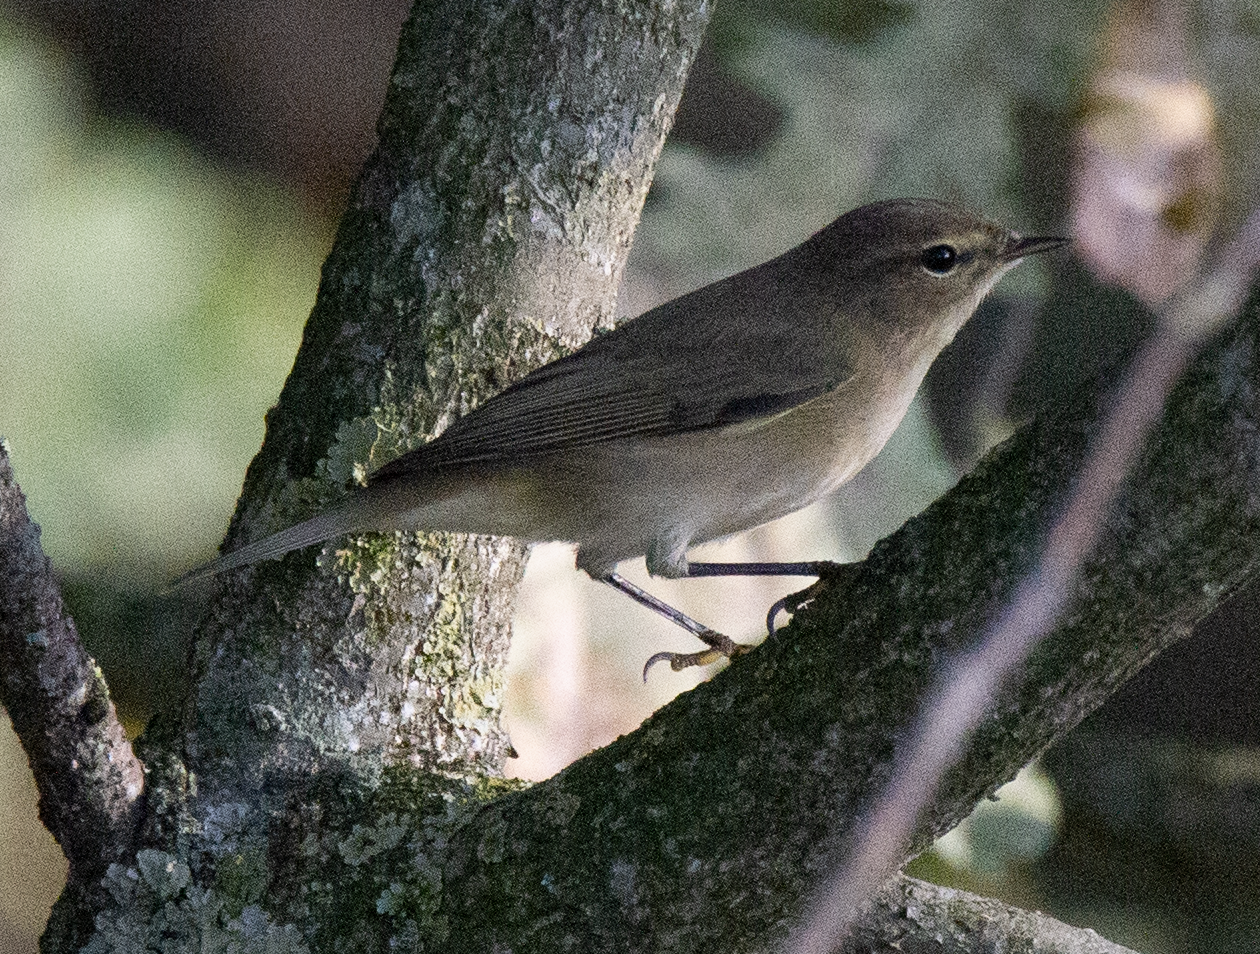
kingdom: Animalia
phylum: Chordata
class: Aves
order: Passeriformes
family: Phylloscopidae
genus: Phylloscopus
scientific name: Phylloscopus collybita
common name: Common chiffchaff
